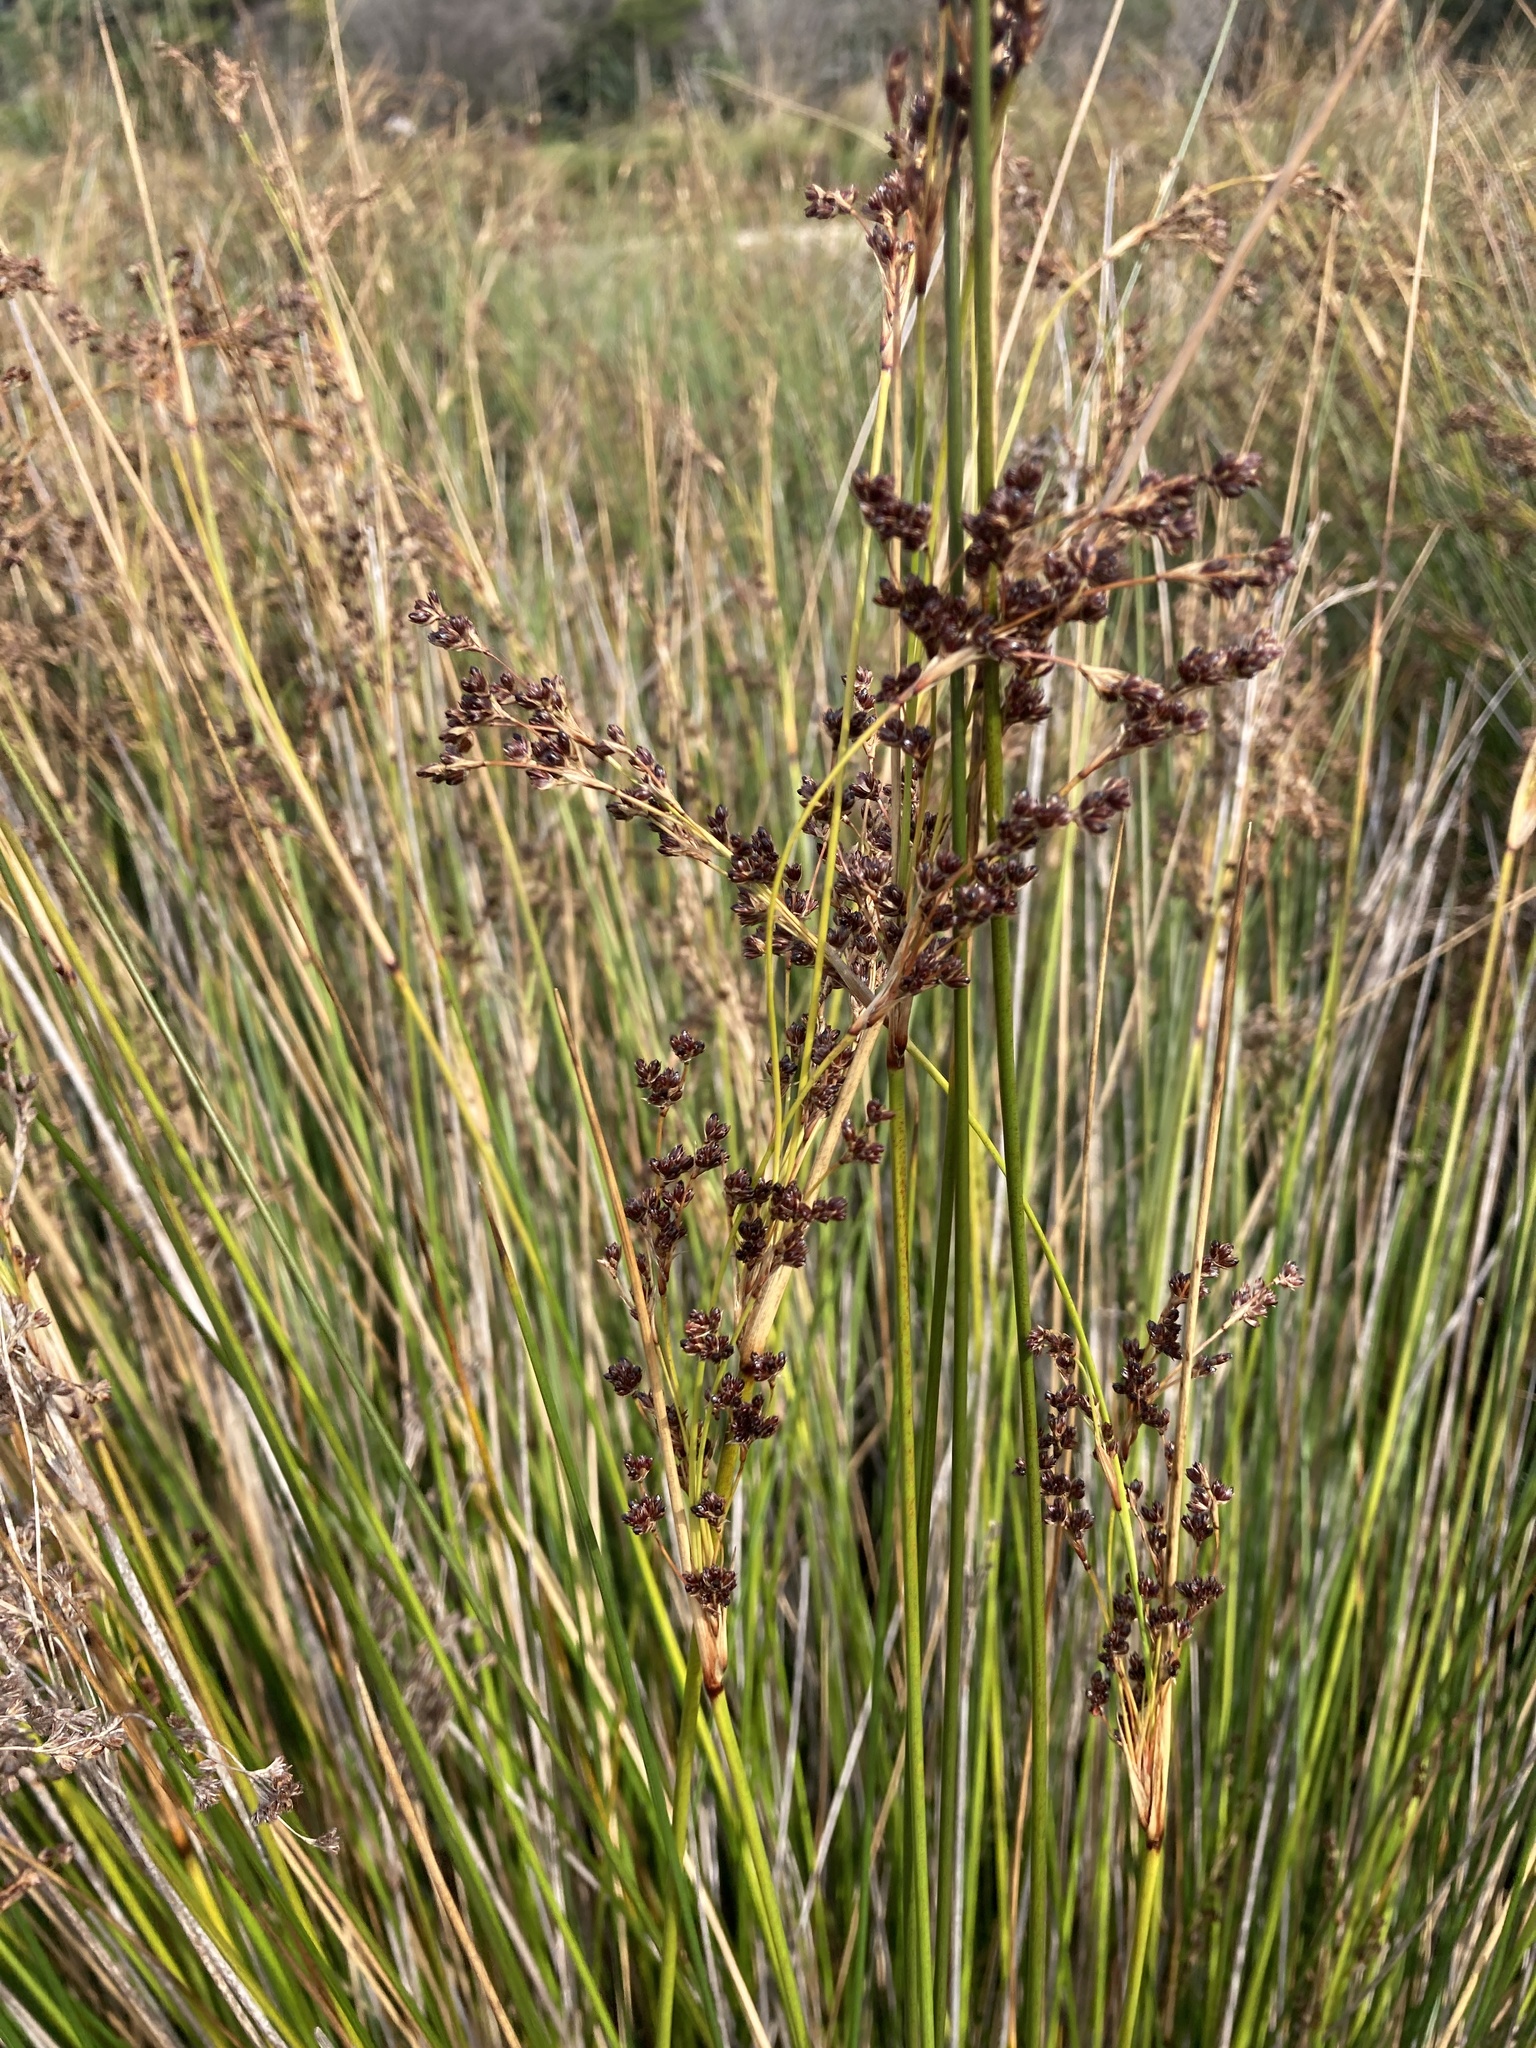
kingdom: Plantae
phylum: Tracheophyta
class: Liliopsida
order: Poales
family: Juncaceae
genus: Juncus
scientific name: Juncus kraussii
